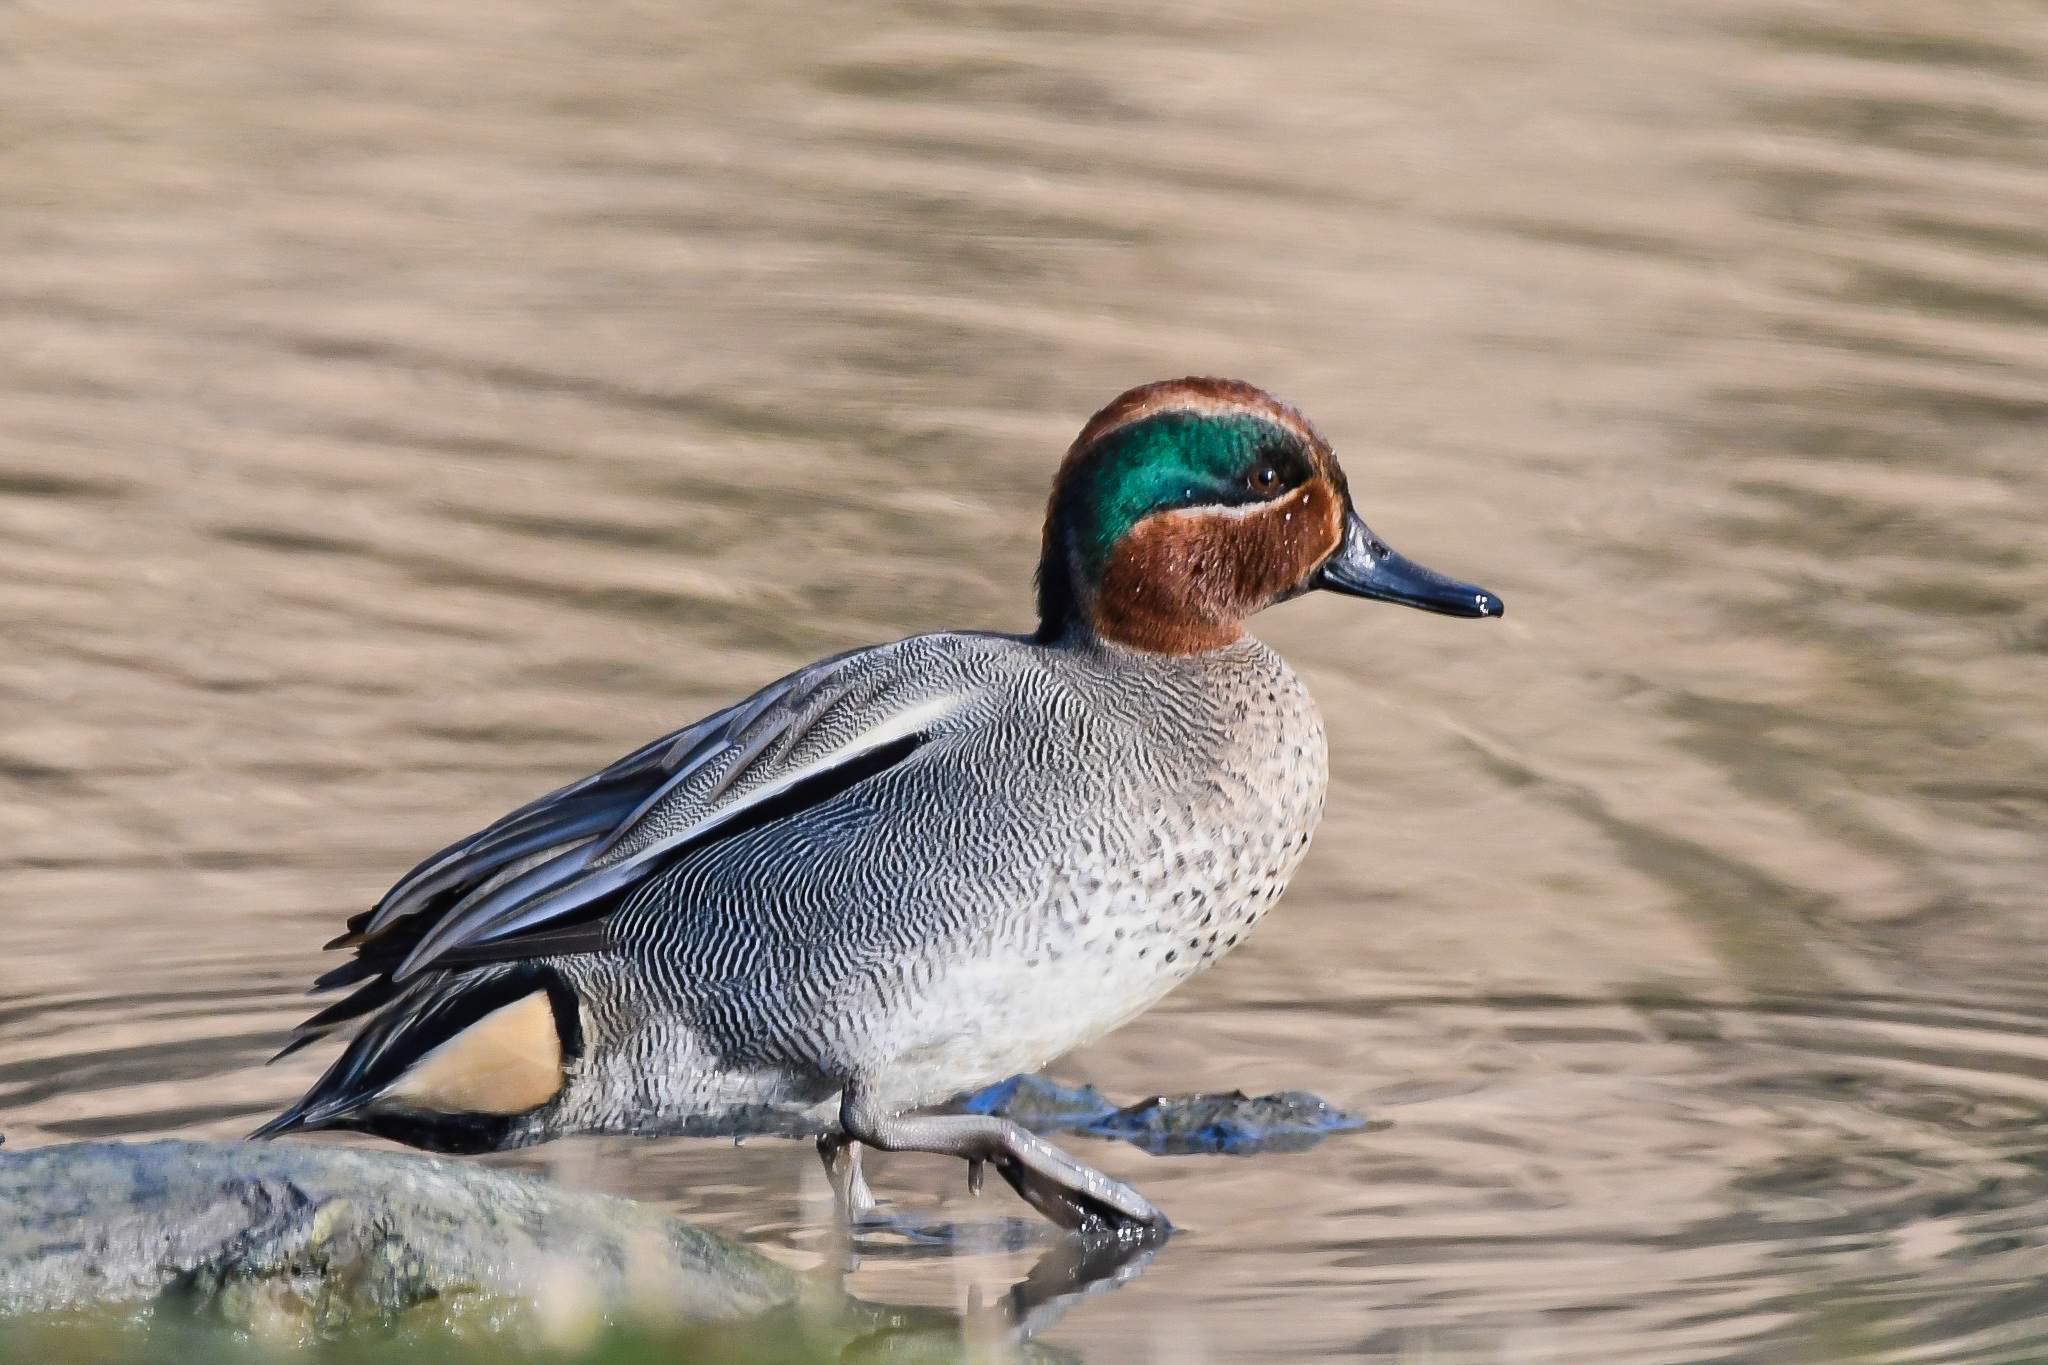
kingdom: Animalia
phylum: Chordata
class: Aves
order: Anseriformes
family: Anatidae
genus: Anas
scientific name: Anas crecca
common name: Eurasian teal
